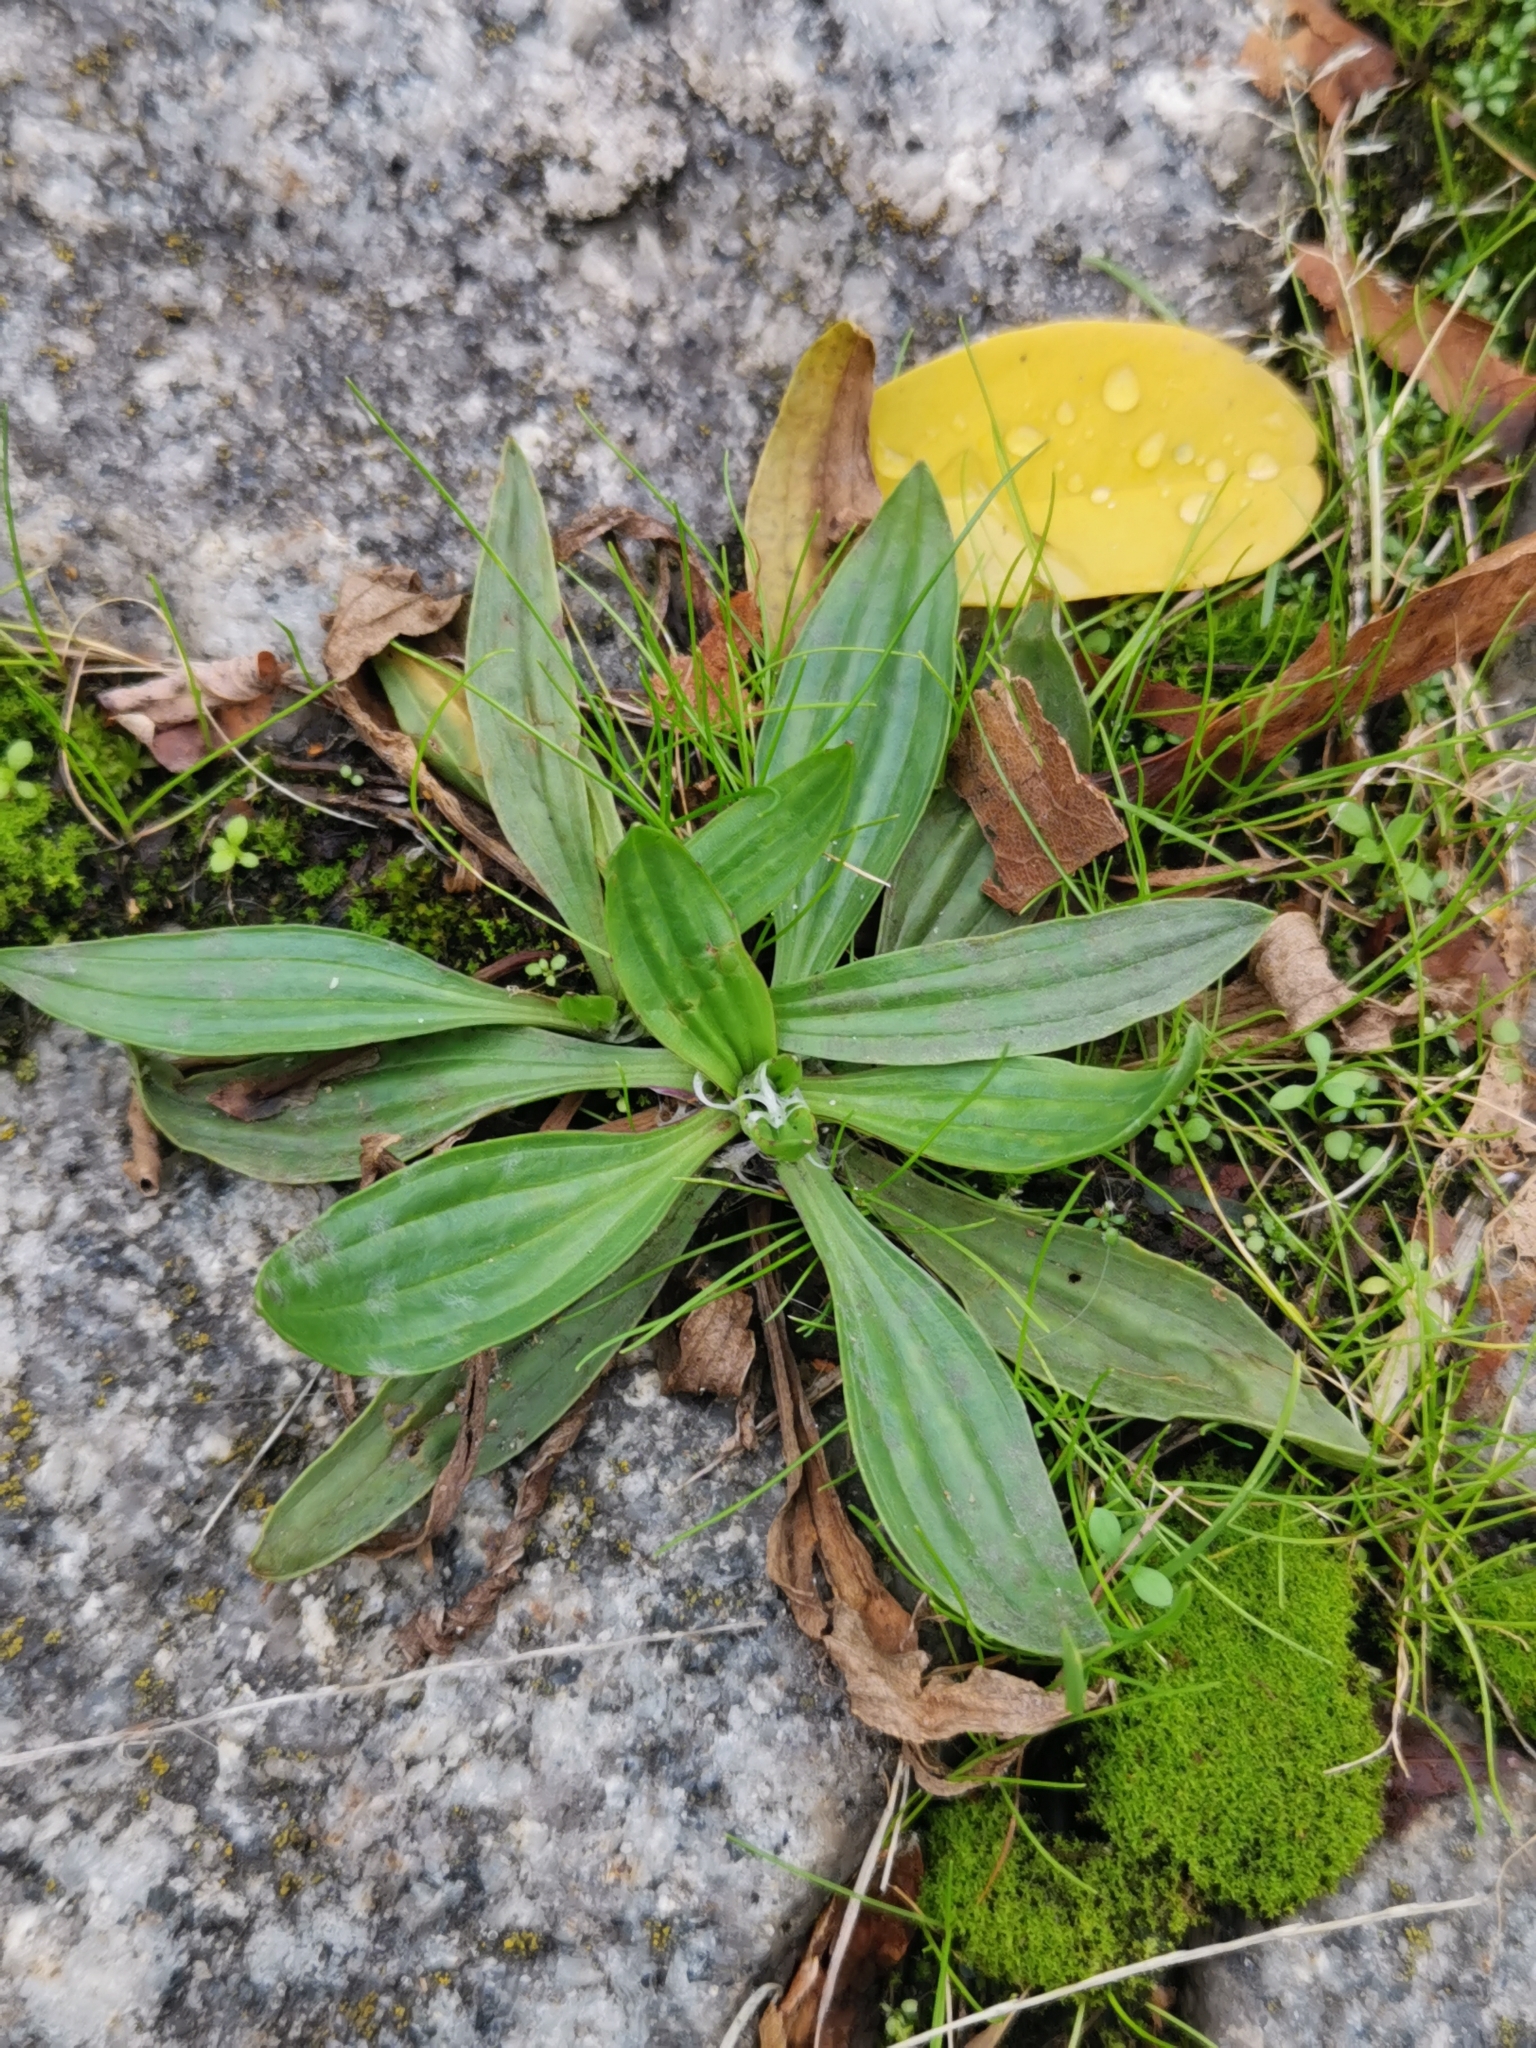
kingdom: Plantae
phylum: Tracheophyta
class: Magnoliopsida
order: Lamiales
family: Plantaginaceae
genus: Plantago
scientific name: Plantago lanceolata
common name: Ribwort plantain
